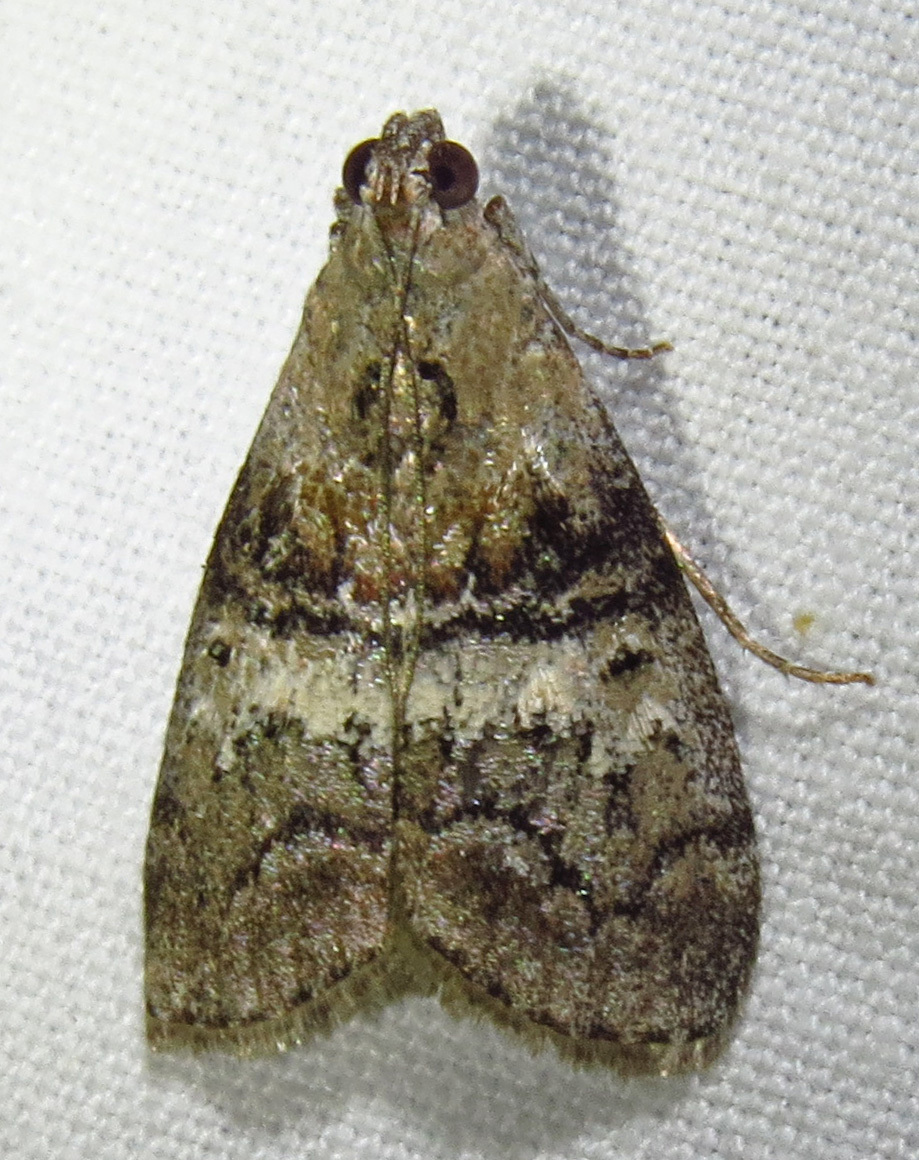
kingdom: Animalia
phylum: Arthropoda
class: Insecta
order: Lepidoptera
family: Pyralidae
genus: Pococera
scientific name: Pococera asperatella
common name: Maple webworm moth
